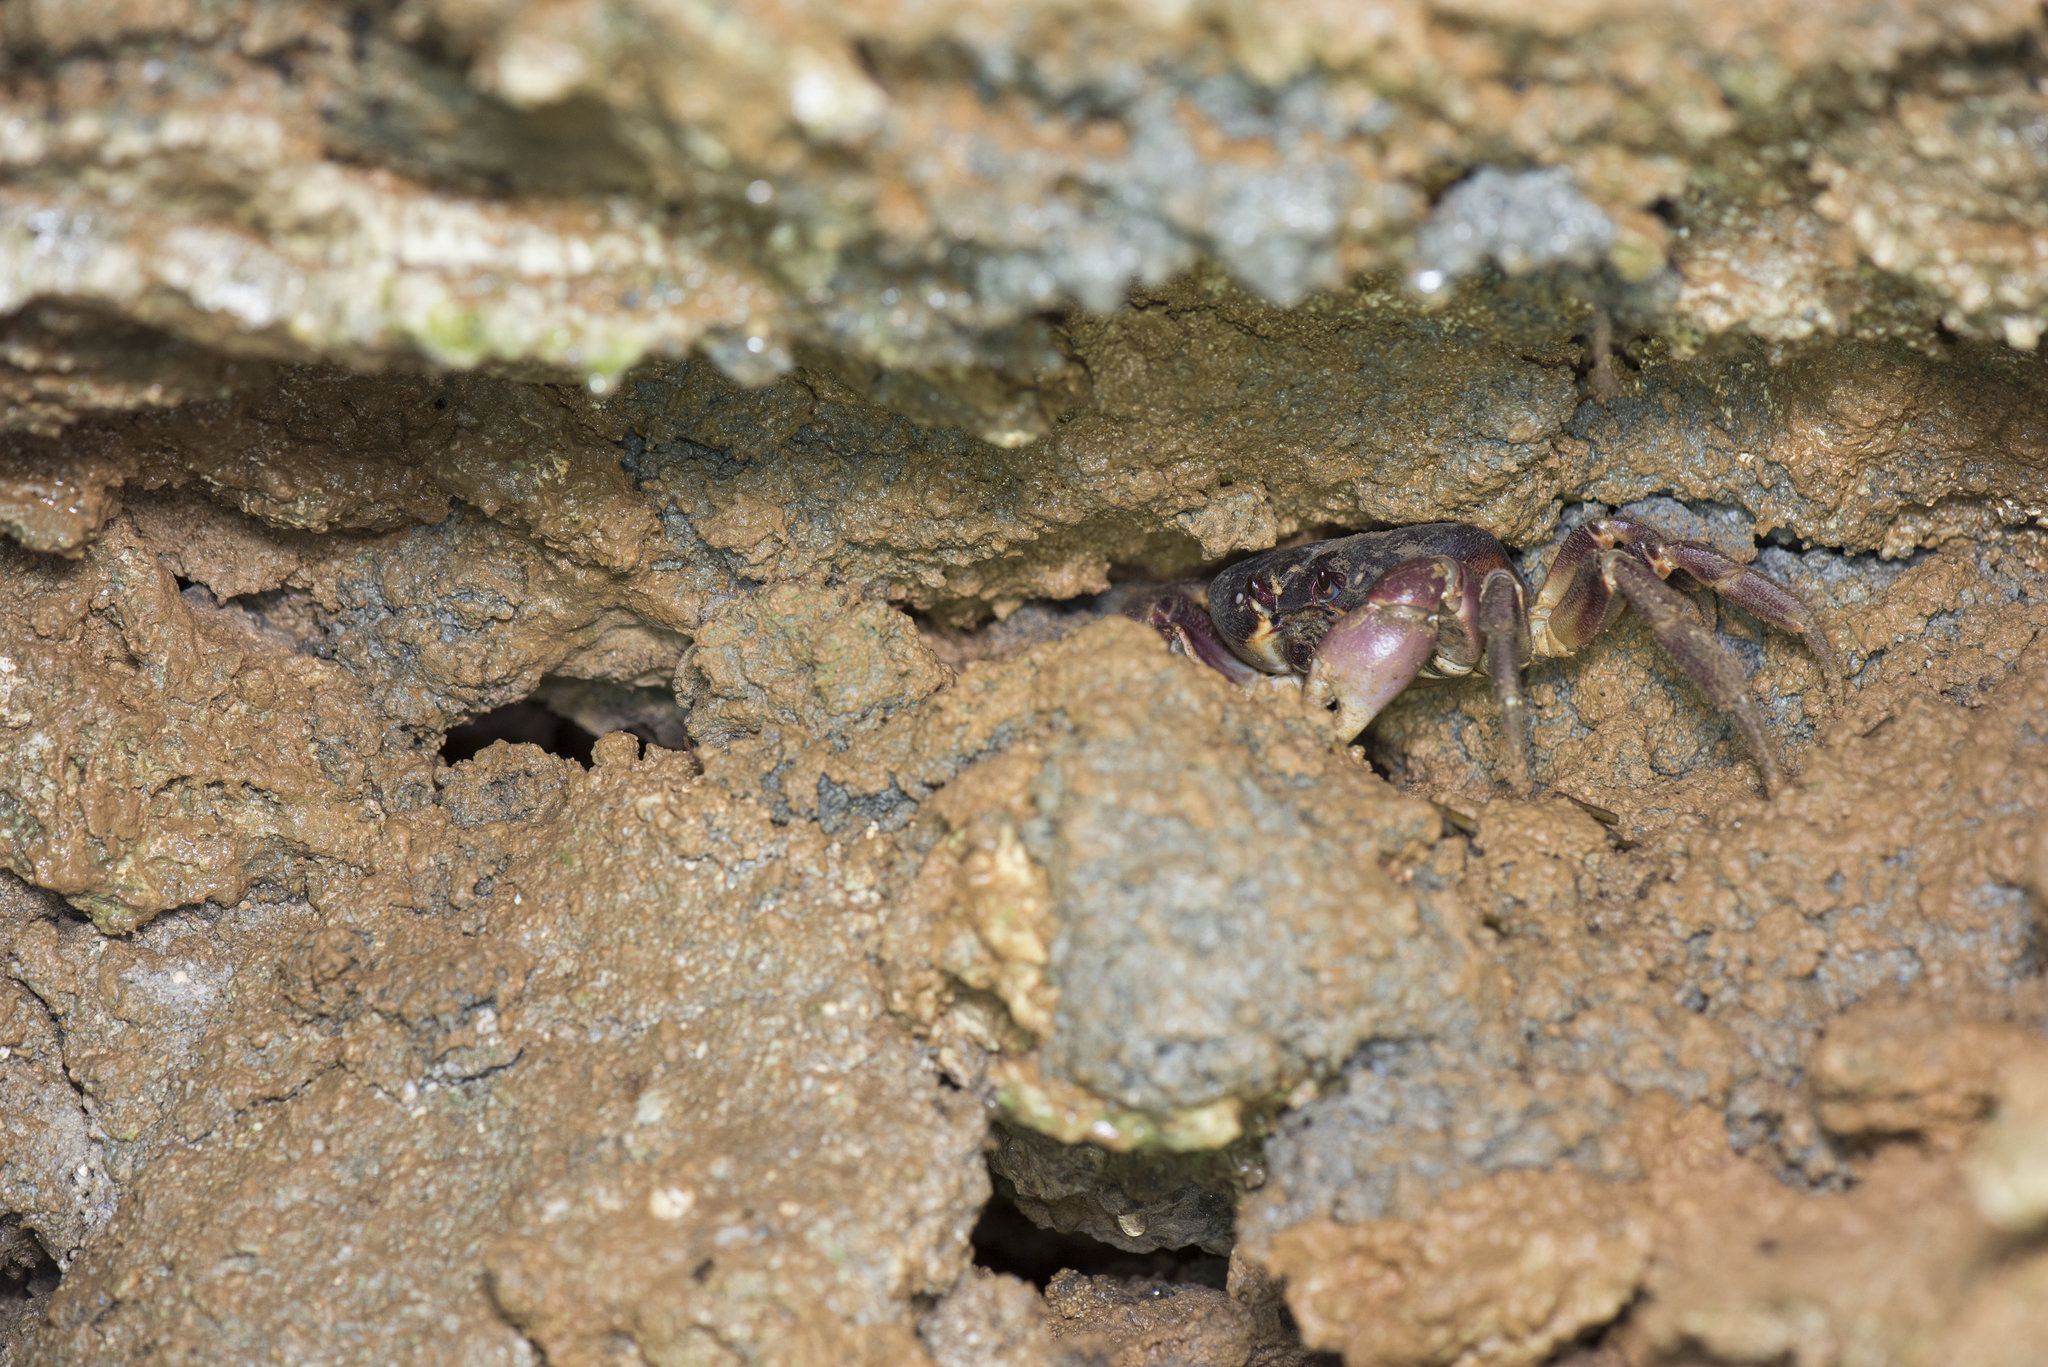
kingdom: Animalia
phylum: Arthropoda
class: Malacostraca
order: Decapoda
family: Gecarcinidae
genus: Gecarcoidea
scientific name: Gecarcoidea lalandii
